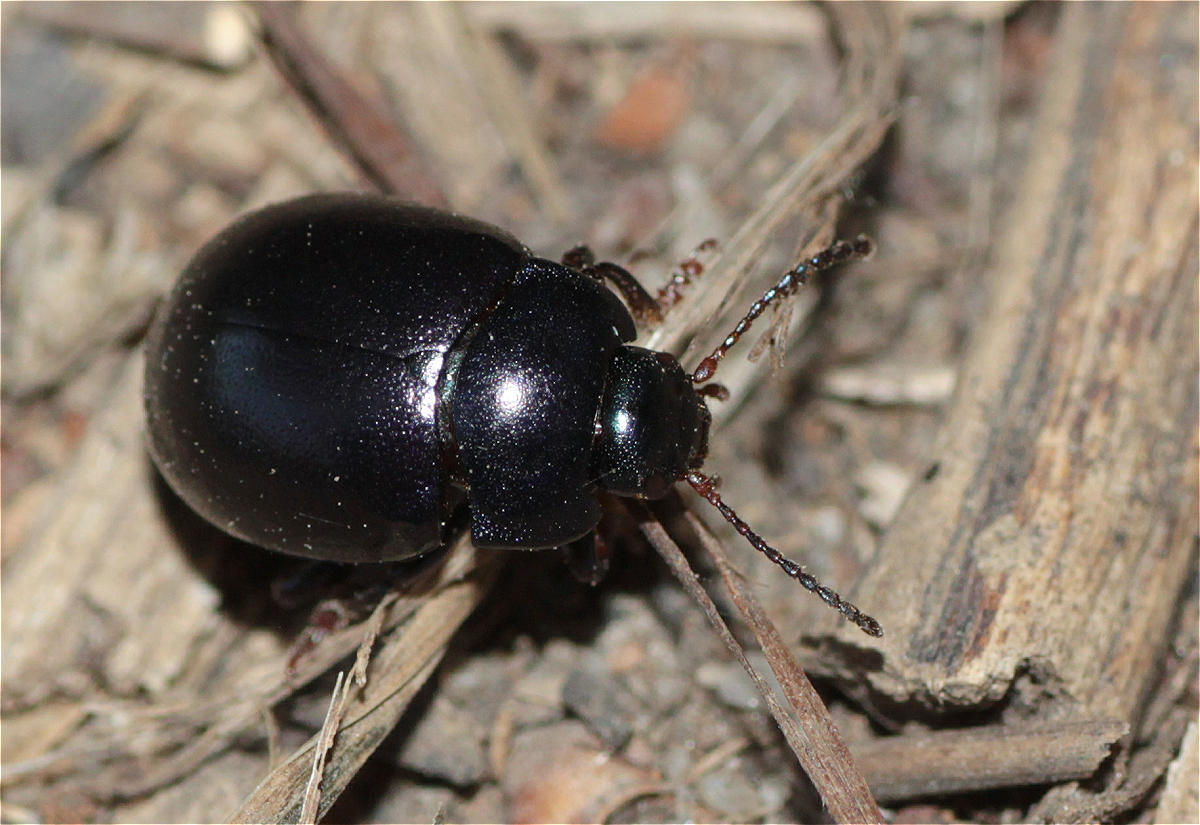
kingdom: Animalia
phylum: Arthropoda
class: Insecta
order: Coleoptera
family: Chrysomelidae
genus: Chrysolina
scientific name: Chrysolina sturmi
